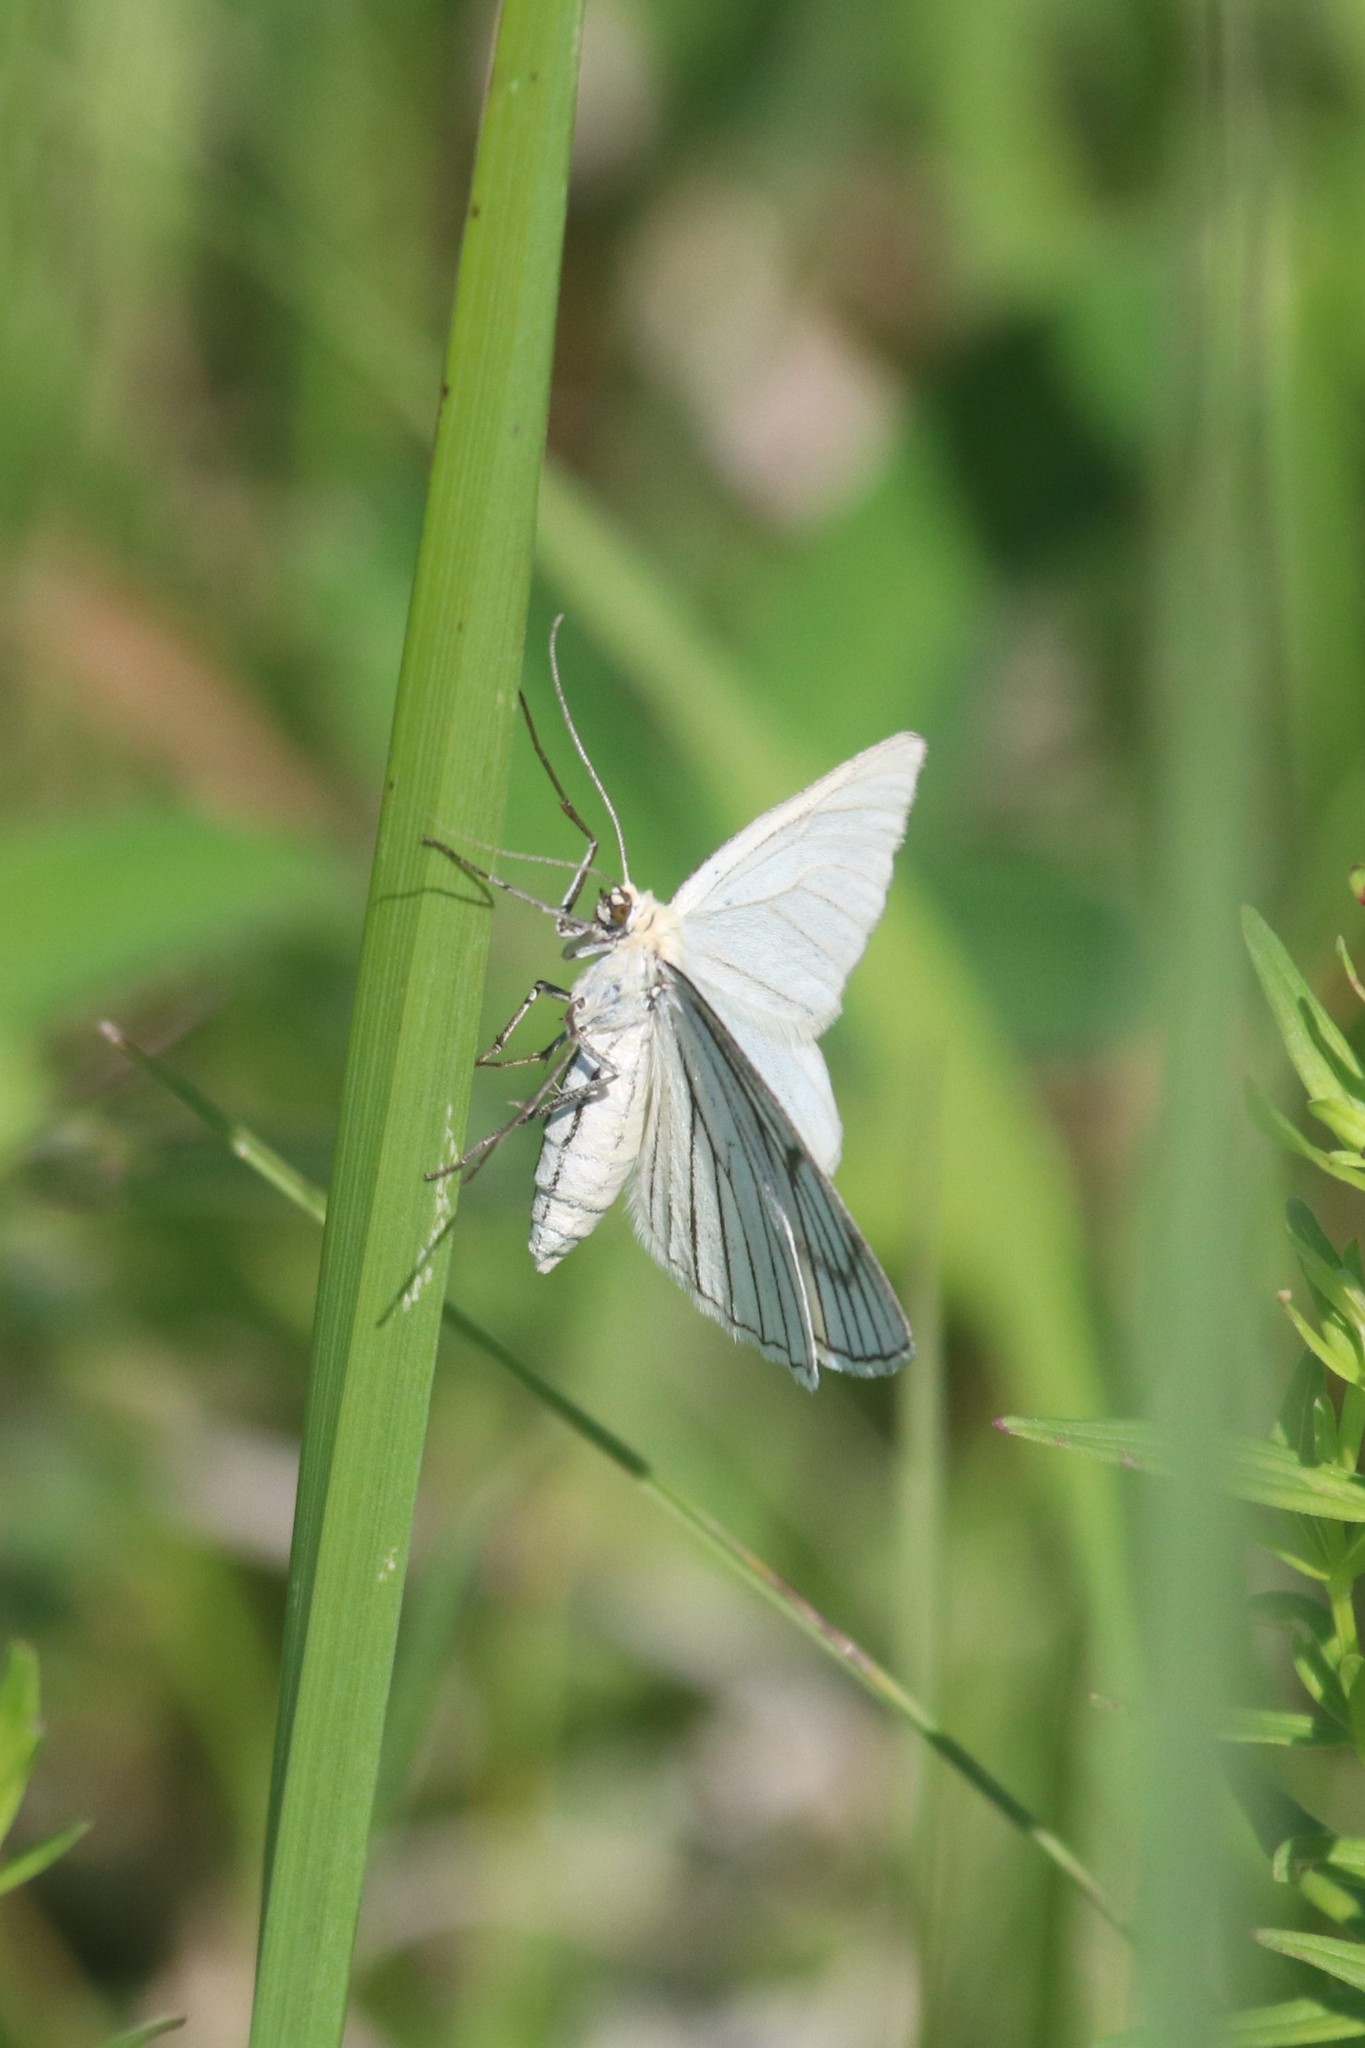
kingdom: Animalia
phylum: Arthropoda
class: Insecta
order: Lepidoptera
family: Geometridae
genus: Siona
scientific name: Siona lineata
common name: Black-veined moth
